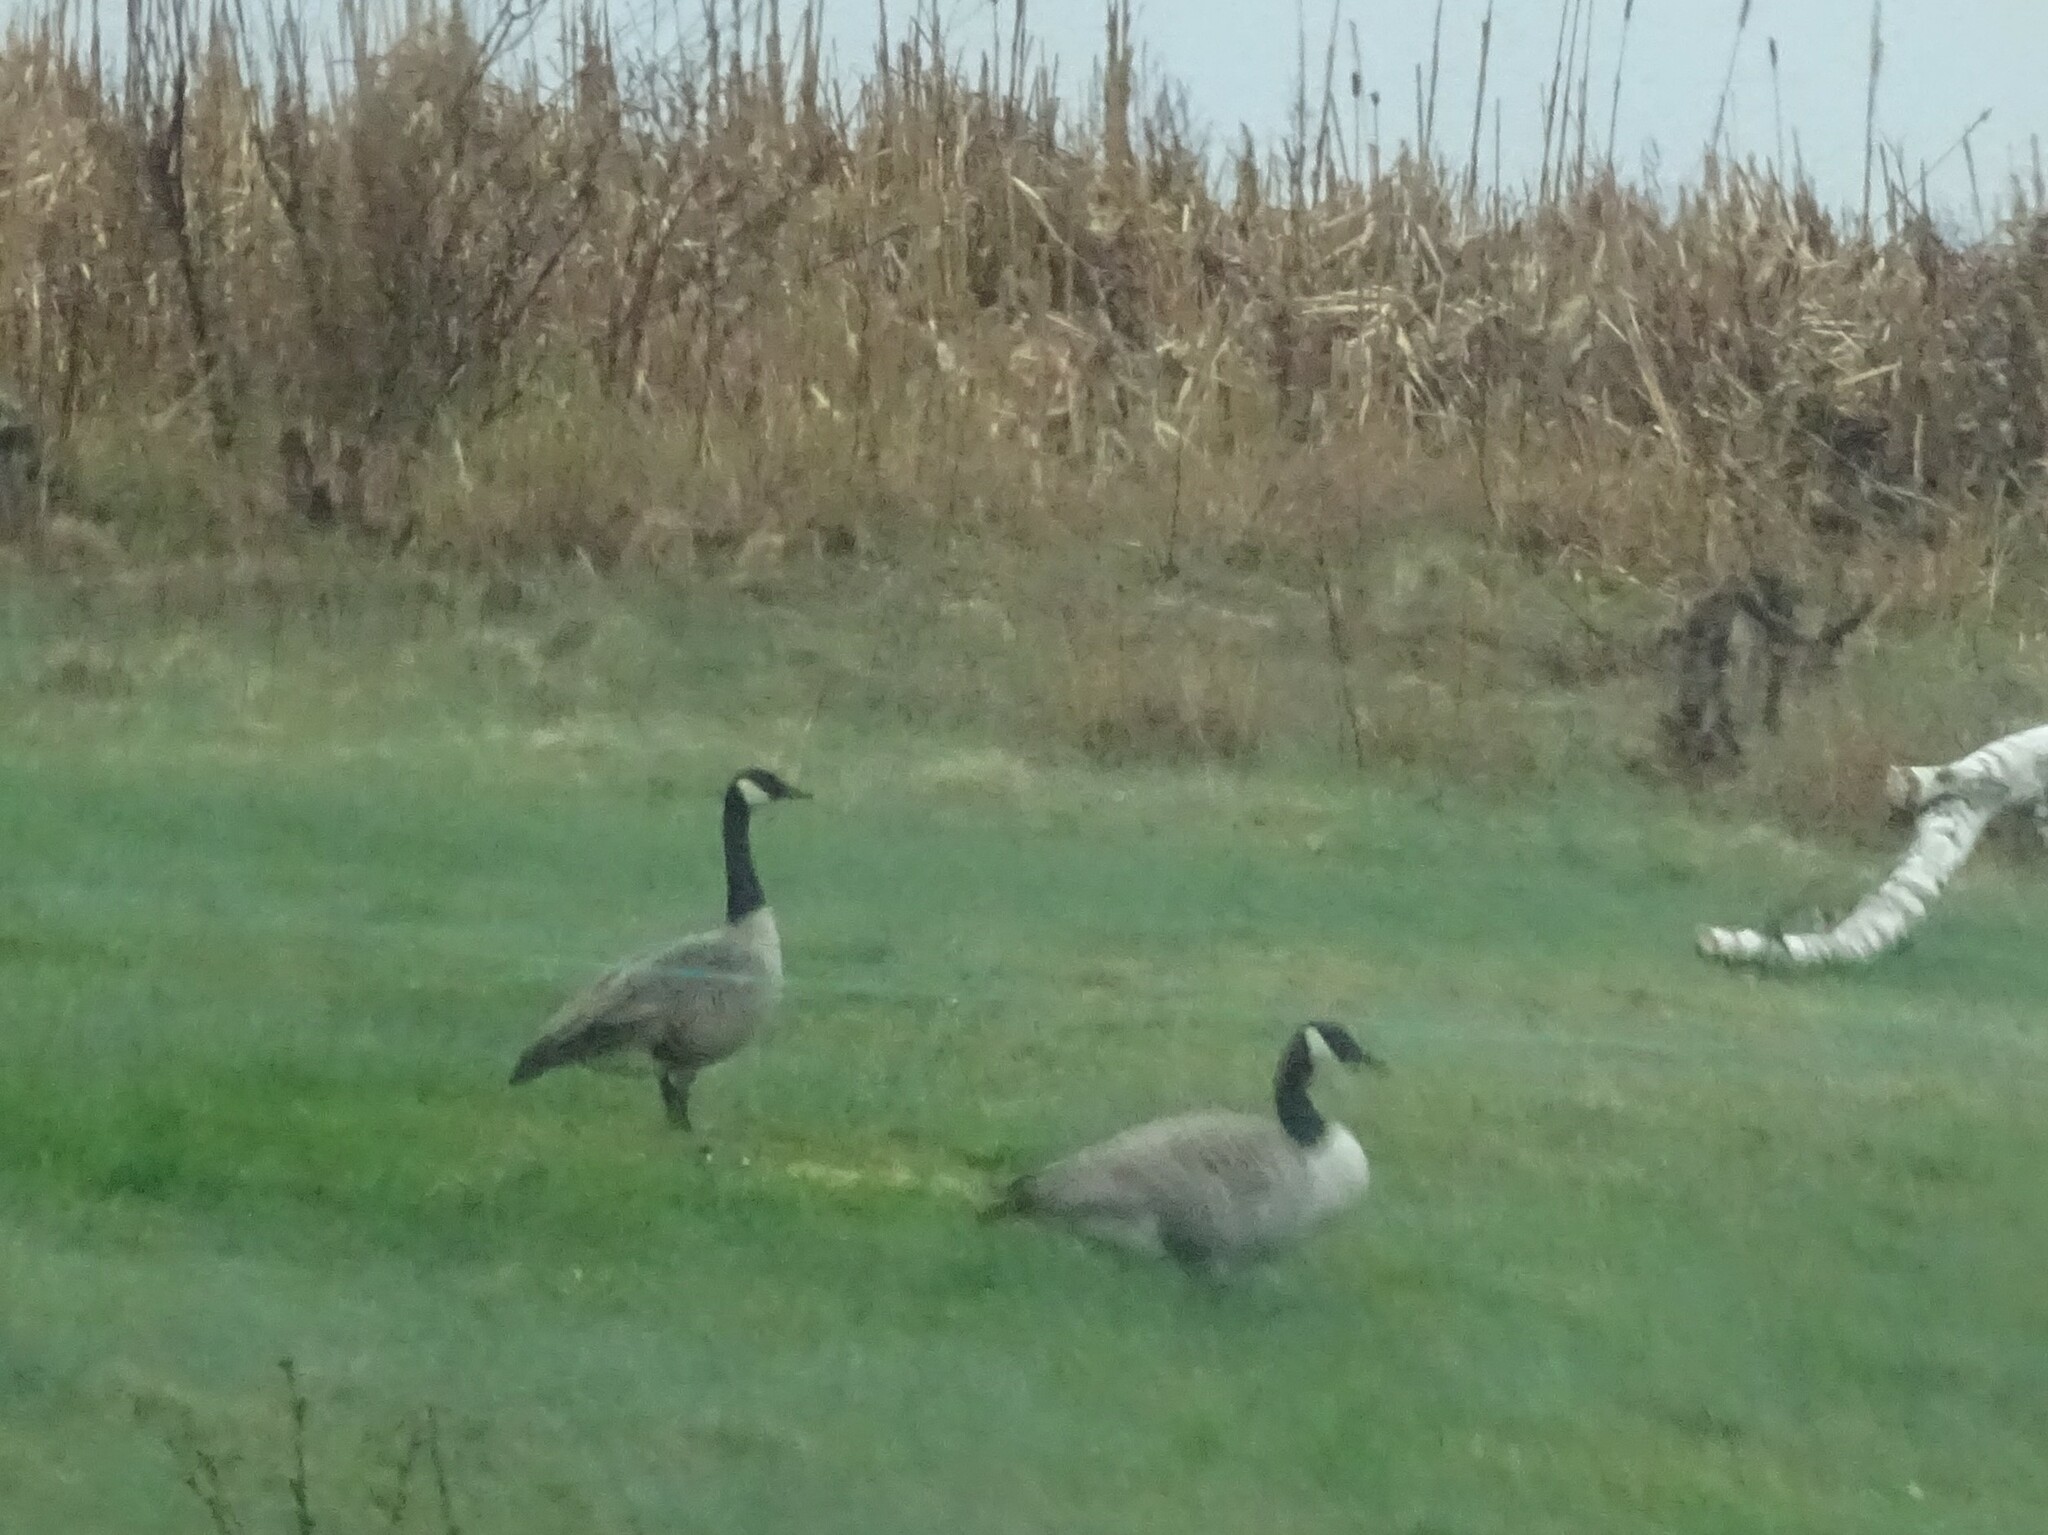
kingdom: Animalia
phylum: Chordata
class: Aves
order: Anseriformes
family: Anatidae
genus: Branta
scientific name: Branta canadensis
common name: Canada goose
